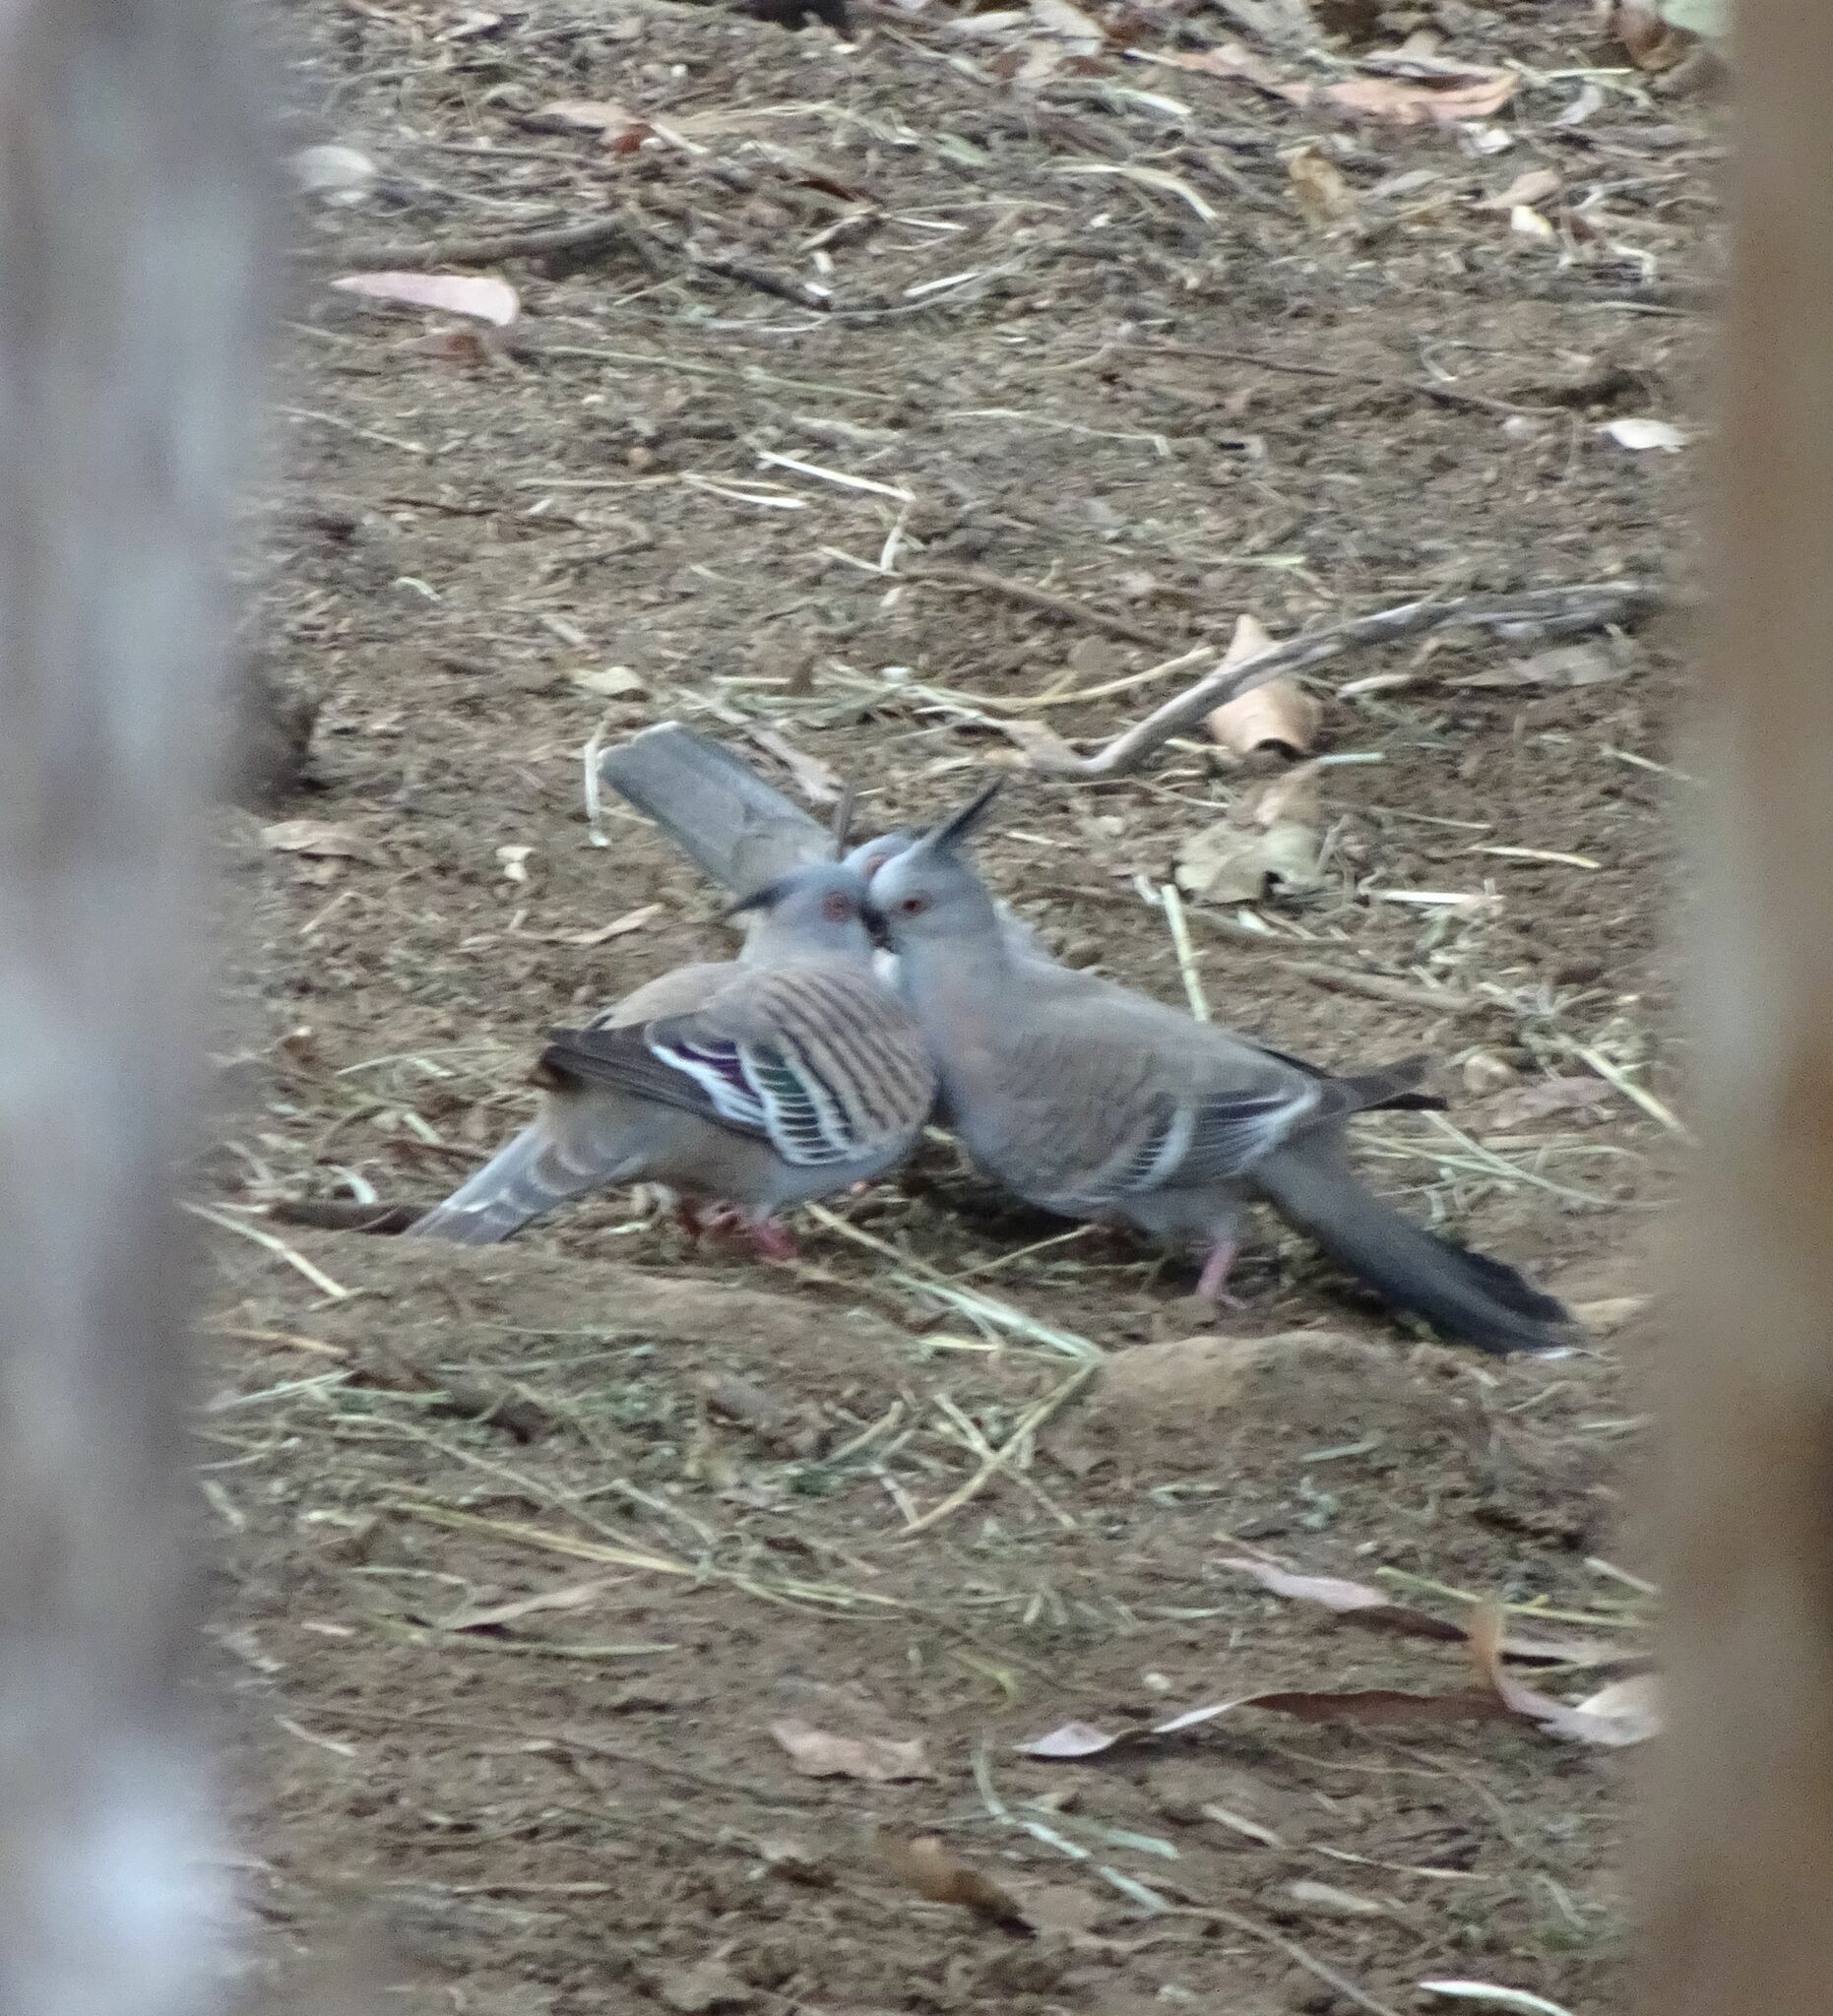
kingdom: Animalia
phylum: Chordata
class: Aves
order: Columbiformes
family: Columbidae
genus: Ocyphaps
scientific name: Ocyphaps lophotes
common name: Crested pigeon
